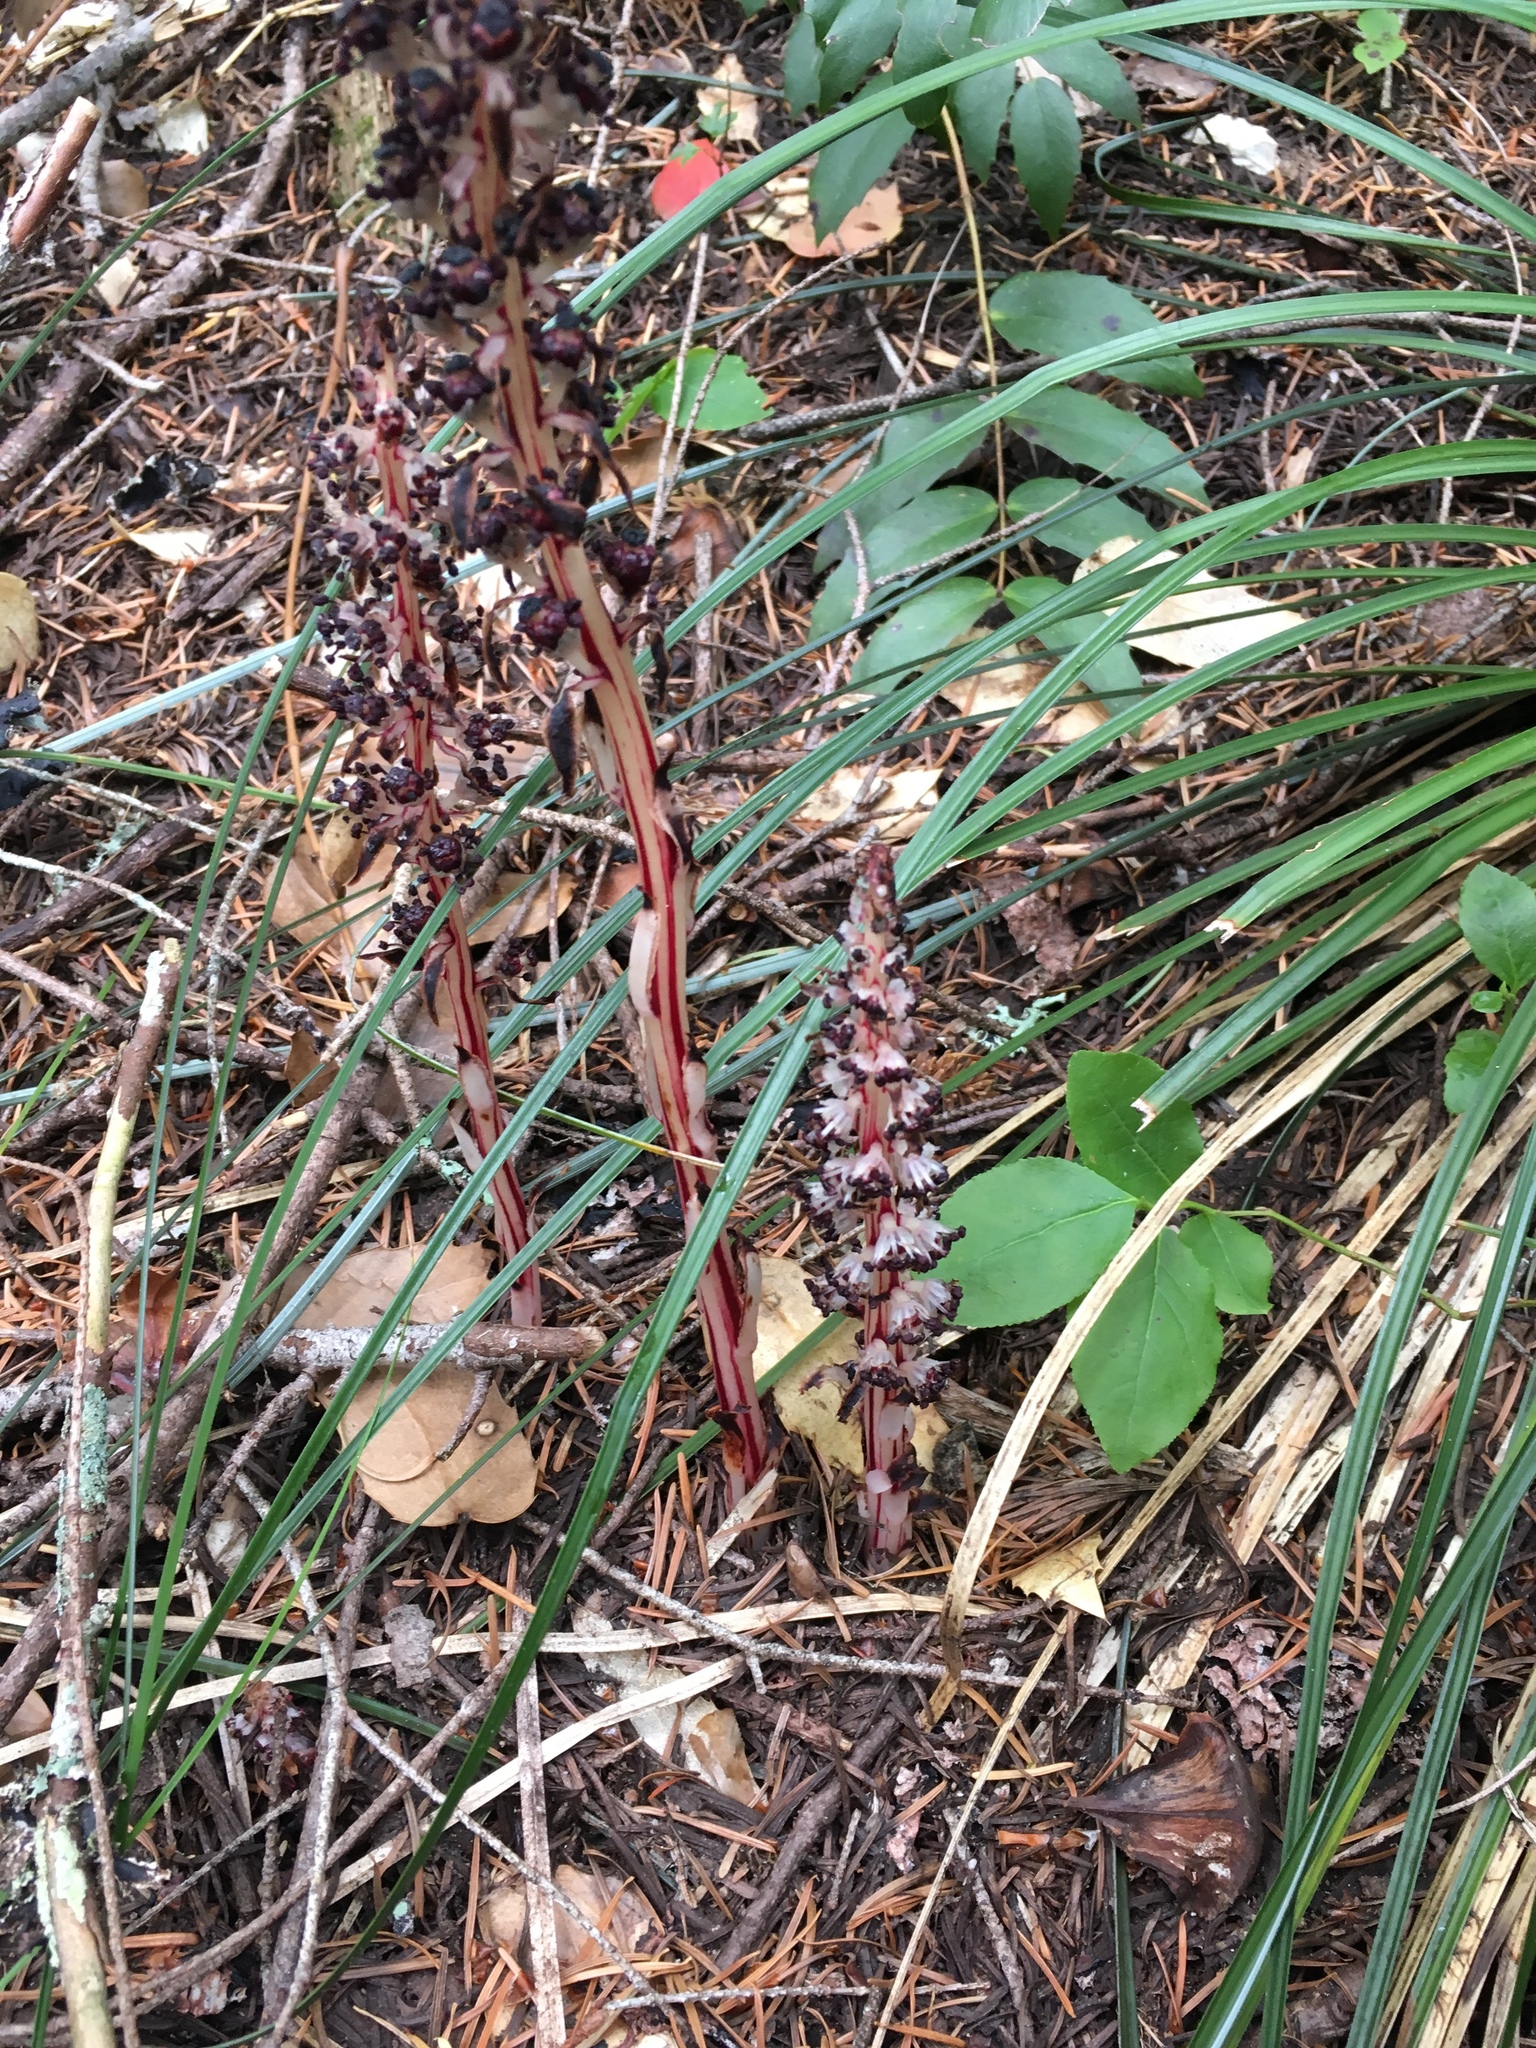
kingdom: Plantae
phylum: Tracheophyta
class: Magnoliopsida
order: Ericales
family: Ericaceae
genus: Allotropa
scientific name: Allotropa virgata
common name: Candy-striped allotropa
